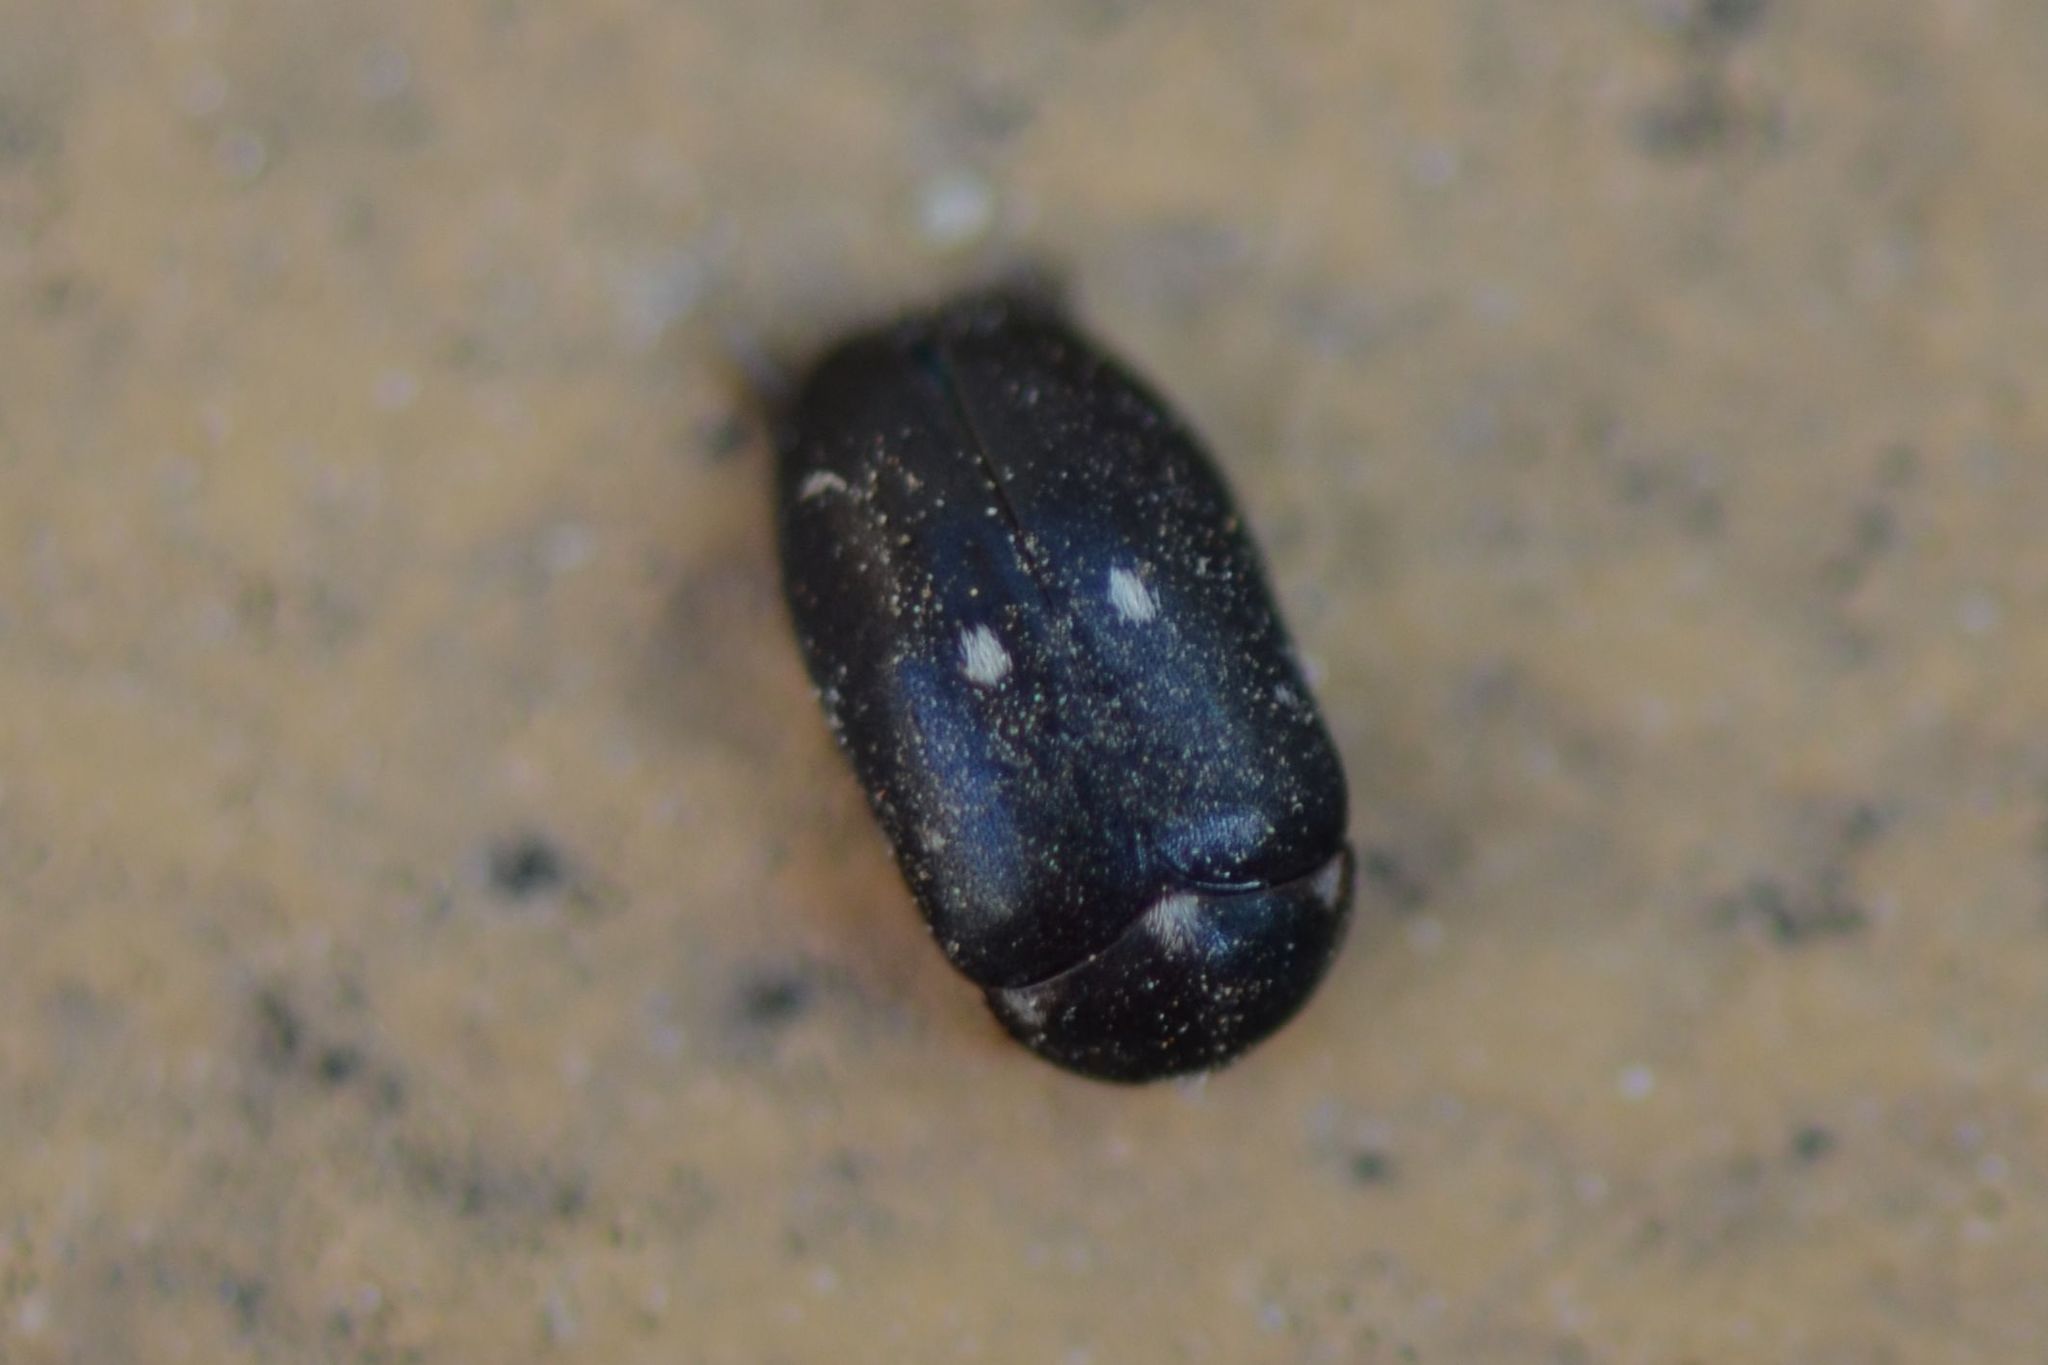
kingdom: Animalia
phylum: Arthropoda
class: Insecta
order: Coleoptera
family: Dermestidae
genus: Attagenus
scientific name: Attagenus pellio
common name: Two-spotted carpet beetle
